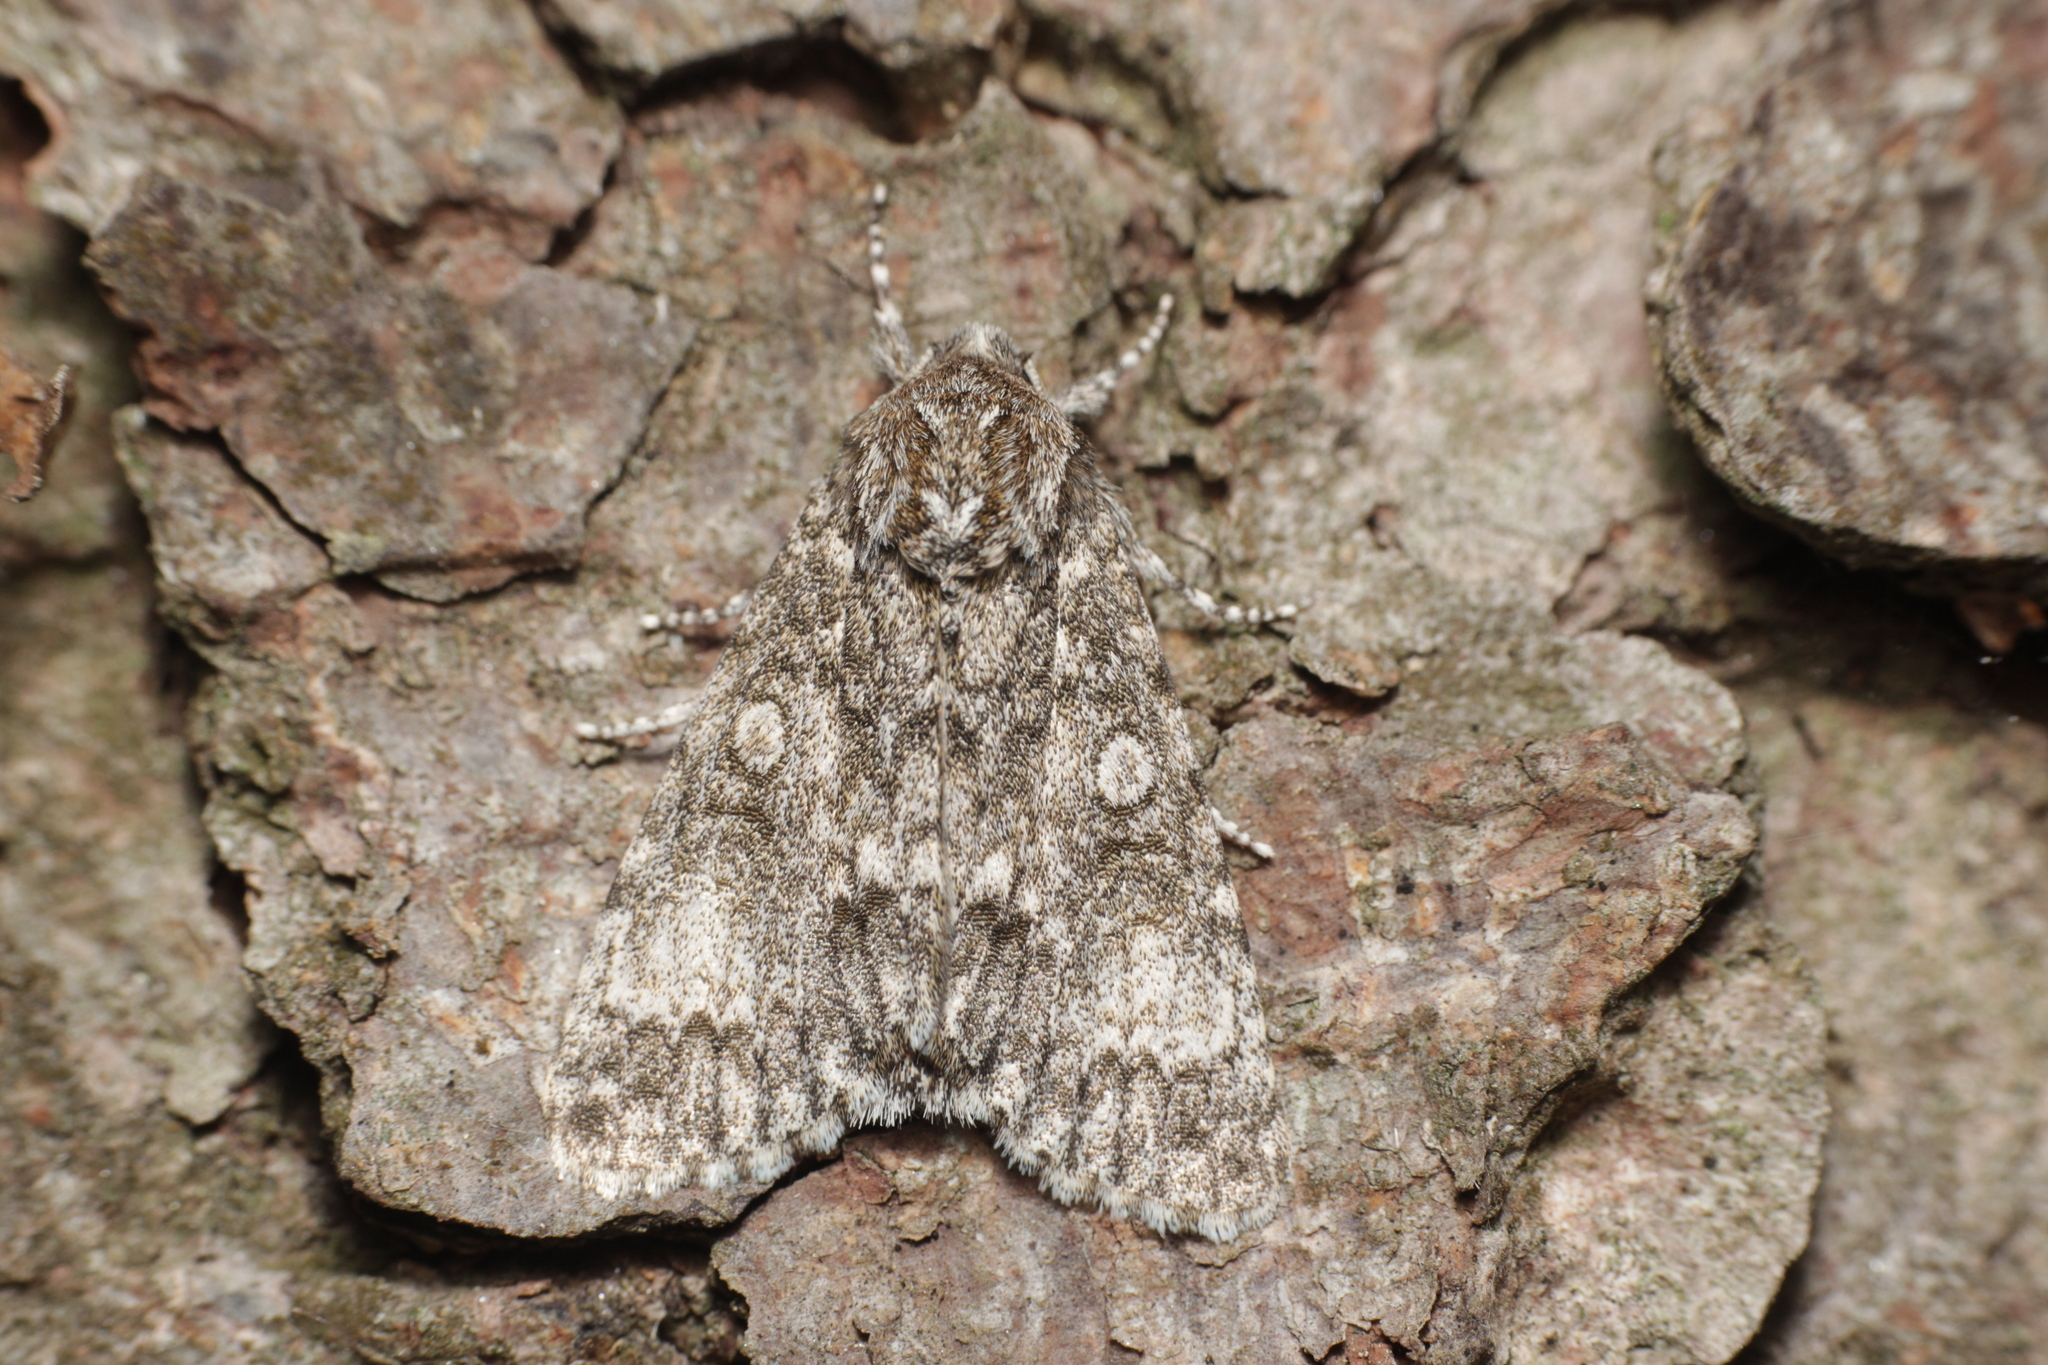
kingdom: Animalia
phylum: Arthropoda
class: Insecta
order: Lepidoptera
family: Noctuidae
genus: Acronicta
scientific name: Acronicta megacephala
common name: Poplar grey
